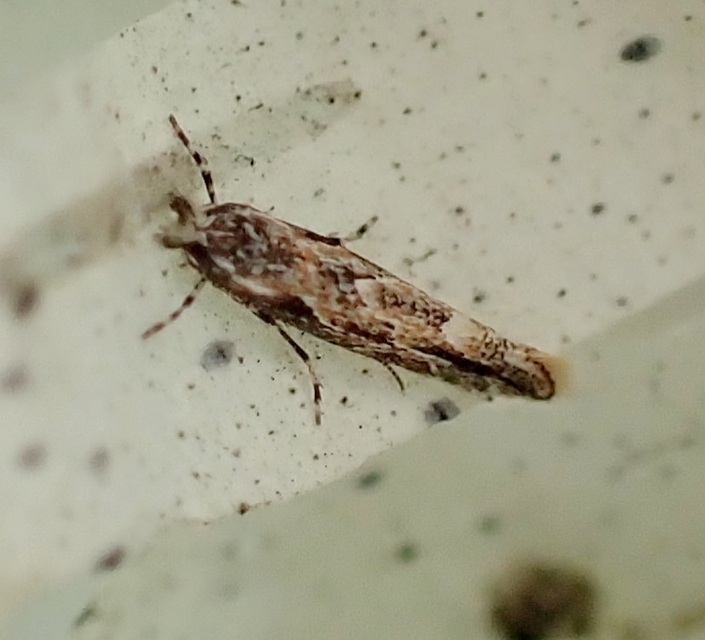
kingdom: Animalia
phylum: Arthropoda
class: Insecta
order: Lepidoptera
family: Gracillariidae
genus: Phyllonorycter
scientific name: Phyllonorycter issikii
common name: Linden midget
